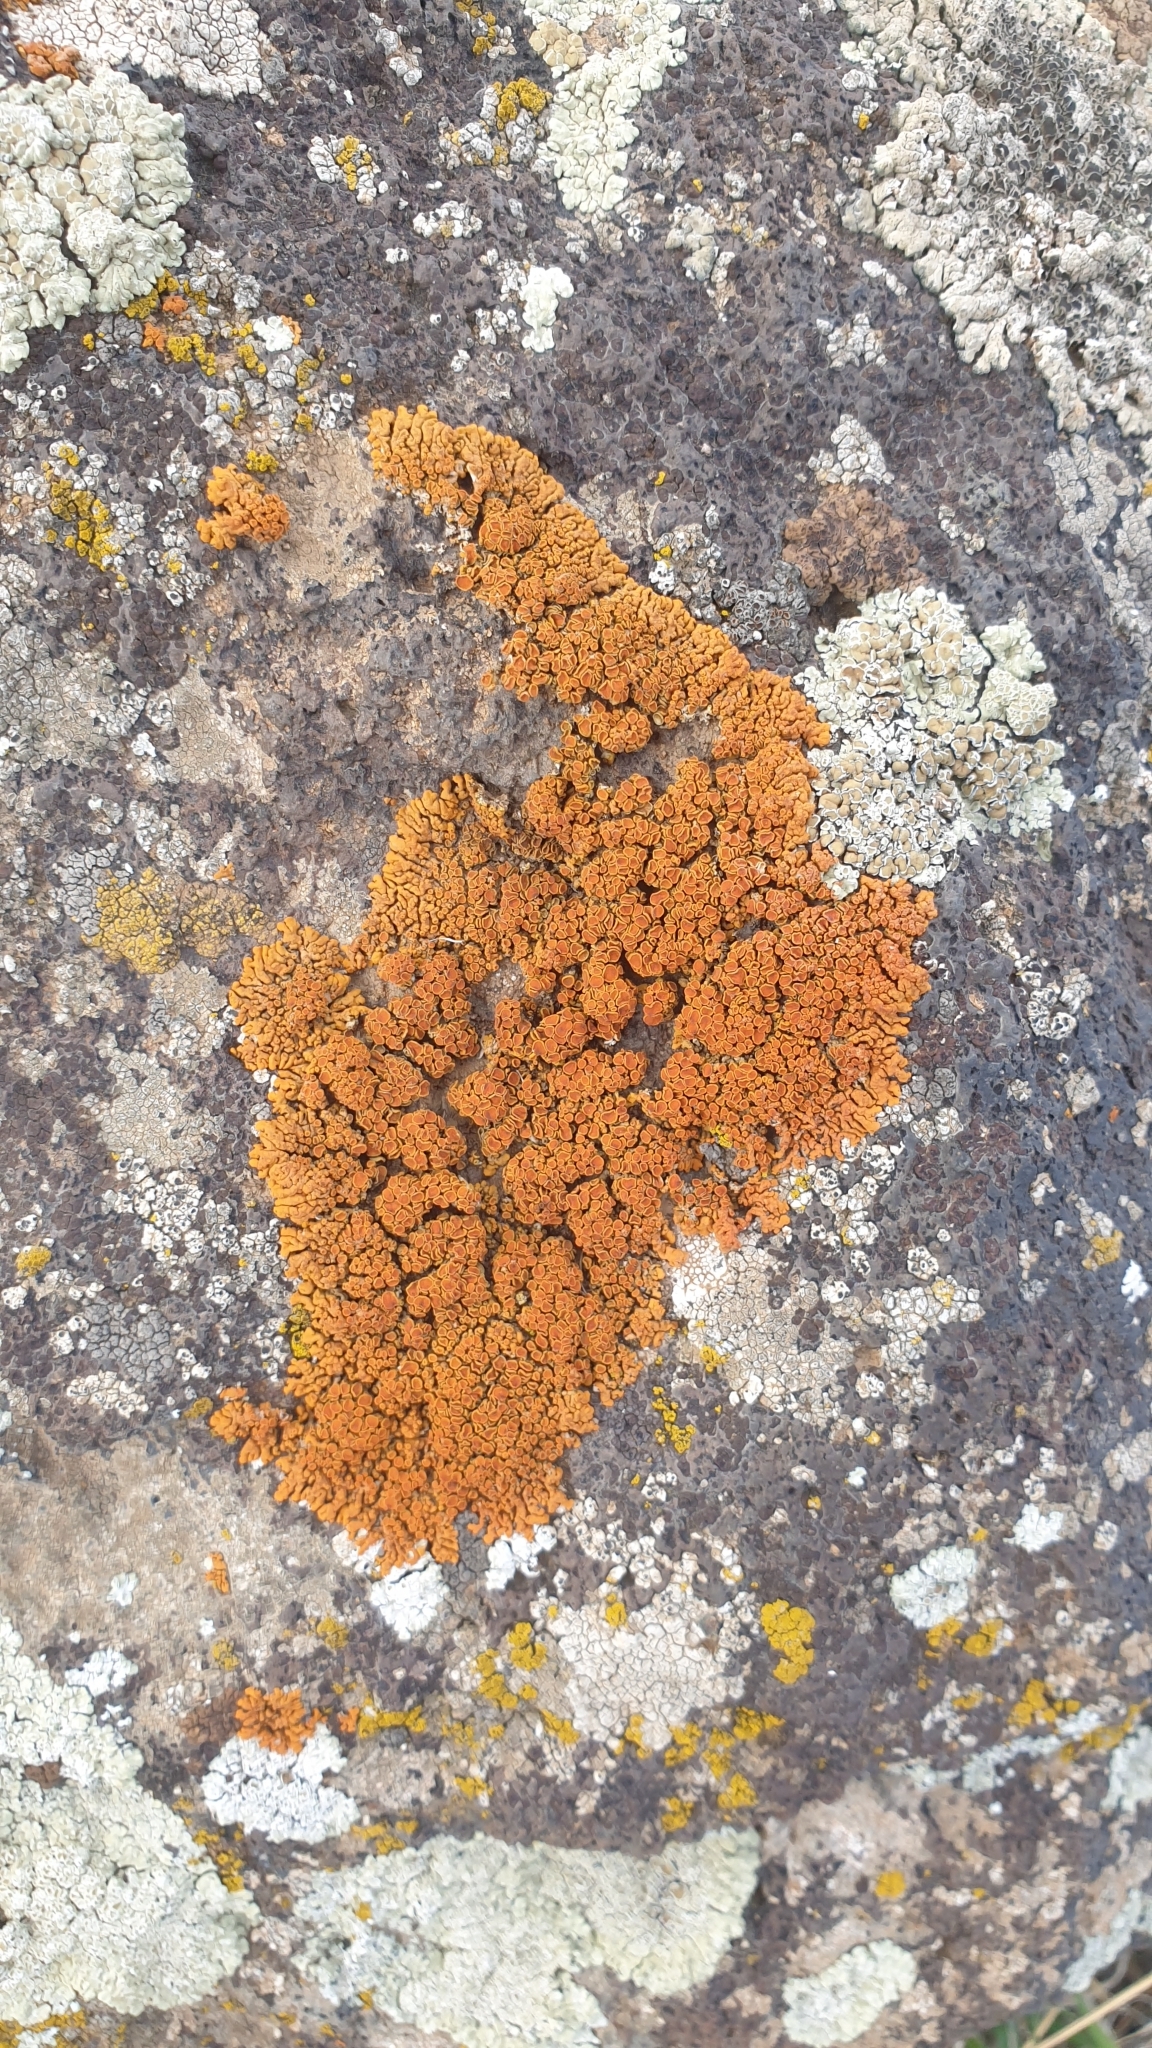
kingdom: Fungi
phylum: Ascomycota
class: Lecanoromycetes
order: Teloschistales
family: Teloschistaceae
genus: Xanthoria
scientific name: Xanthoria elegans
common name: Elegant sunburst lichen
